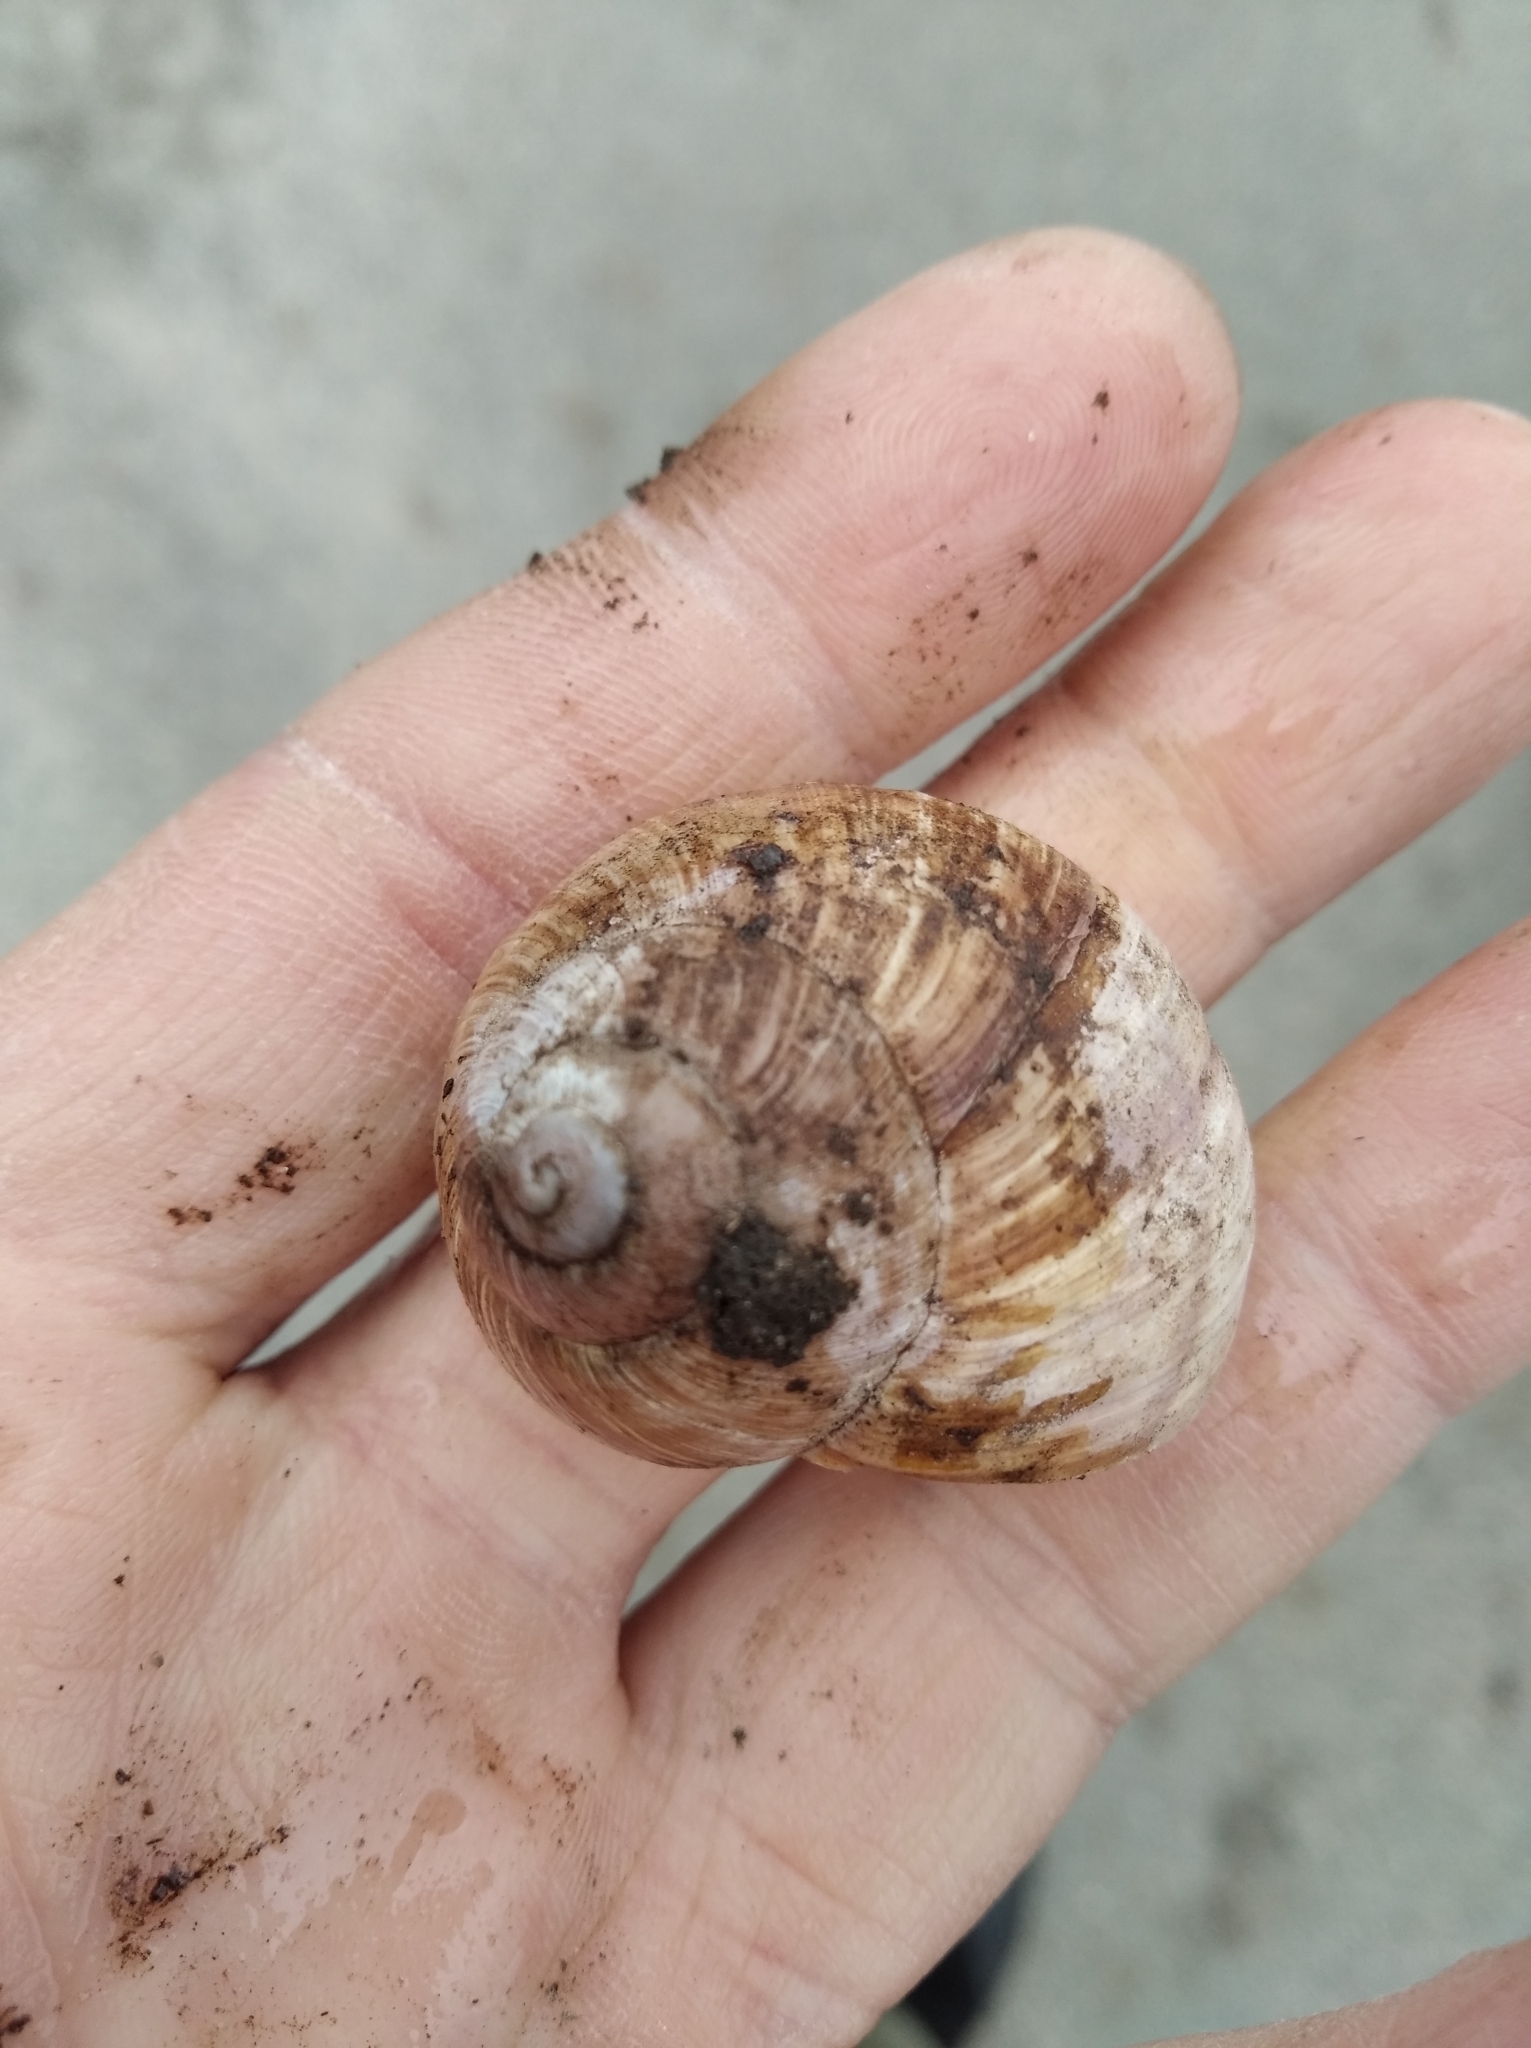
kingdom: Animalia
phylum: Mollusca
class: Gastropoda
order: Stylommatophora
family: Helicidae
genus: Helix
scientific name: Helix pomatia
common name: Roman snail
